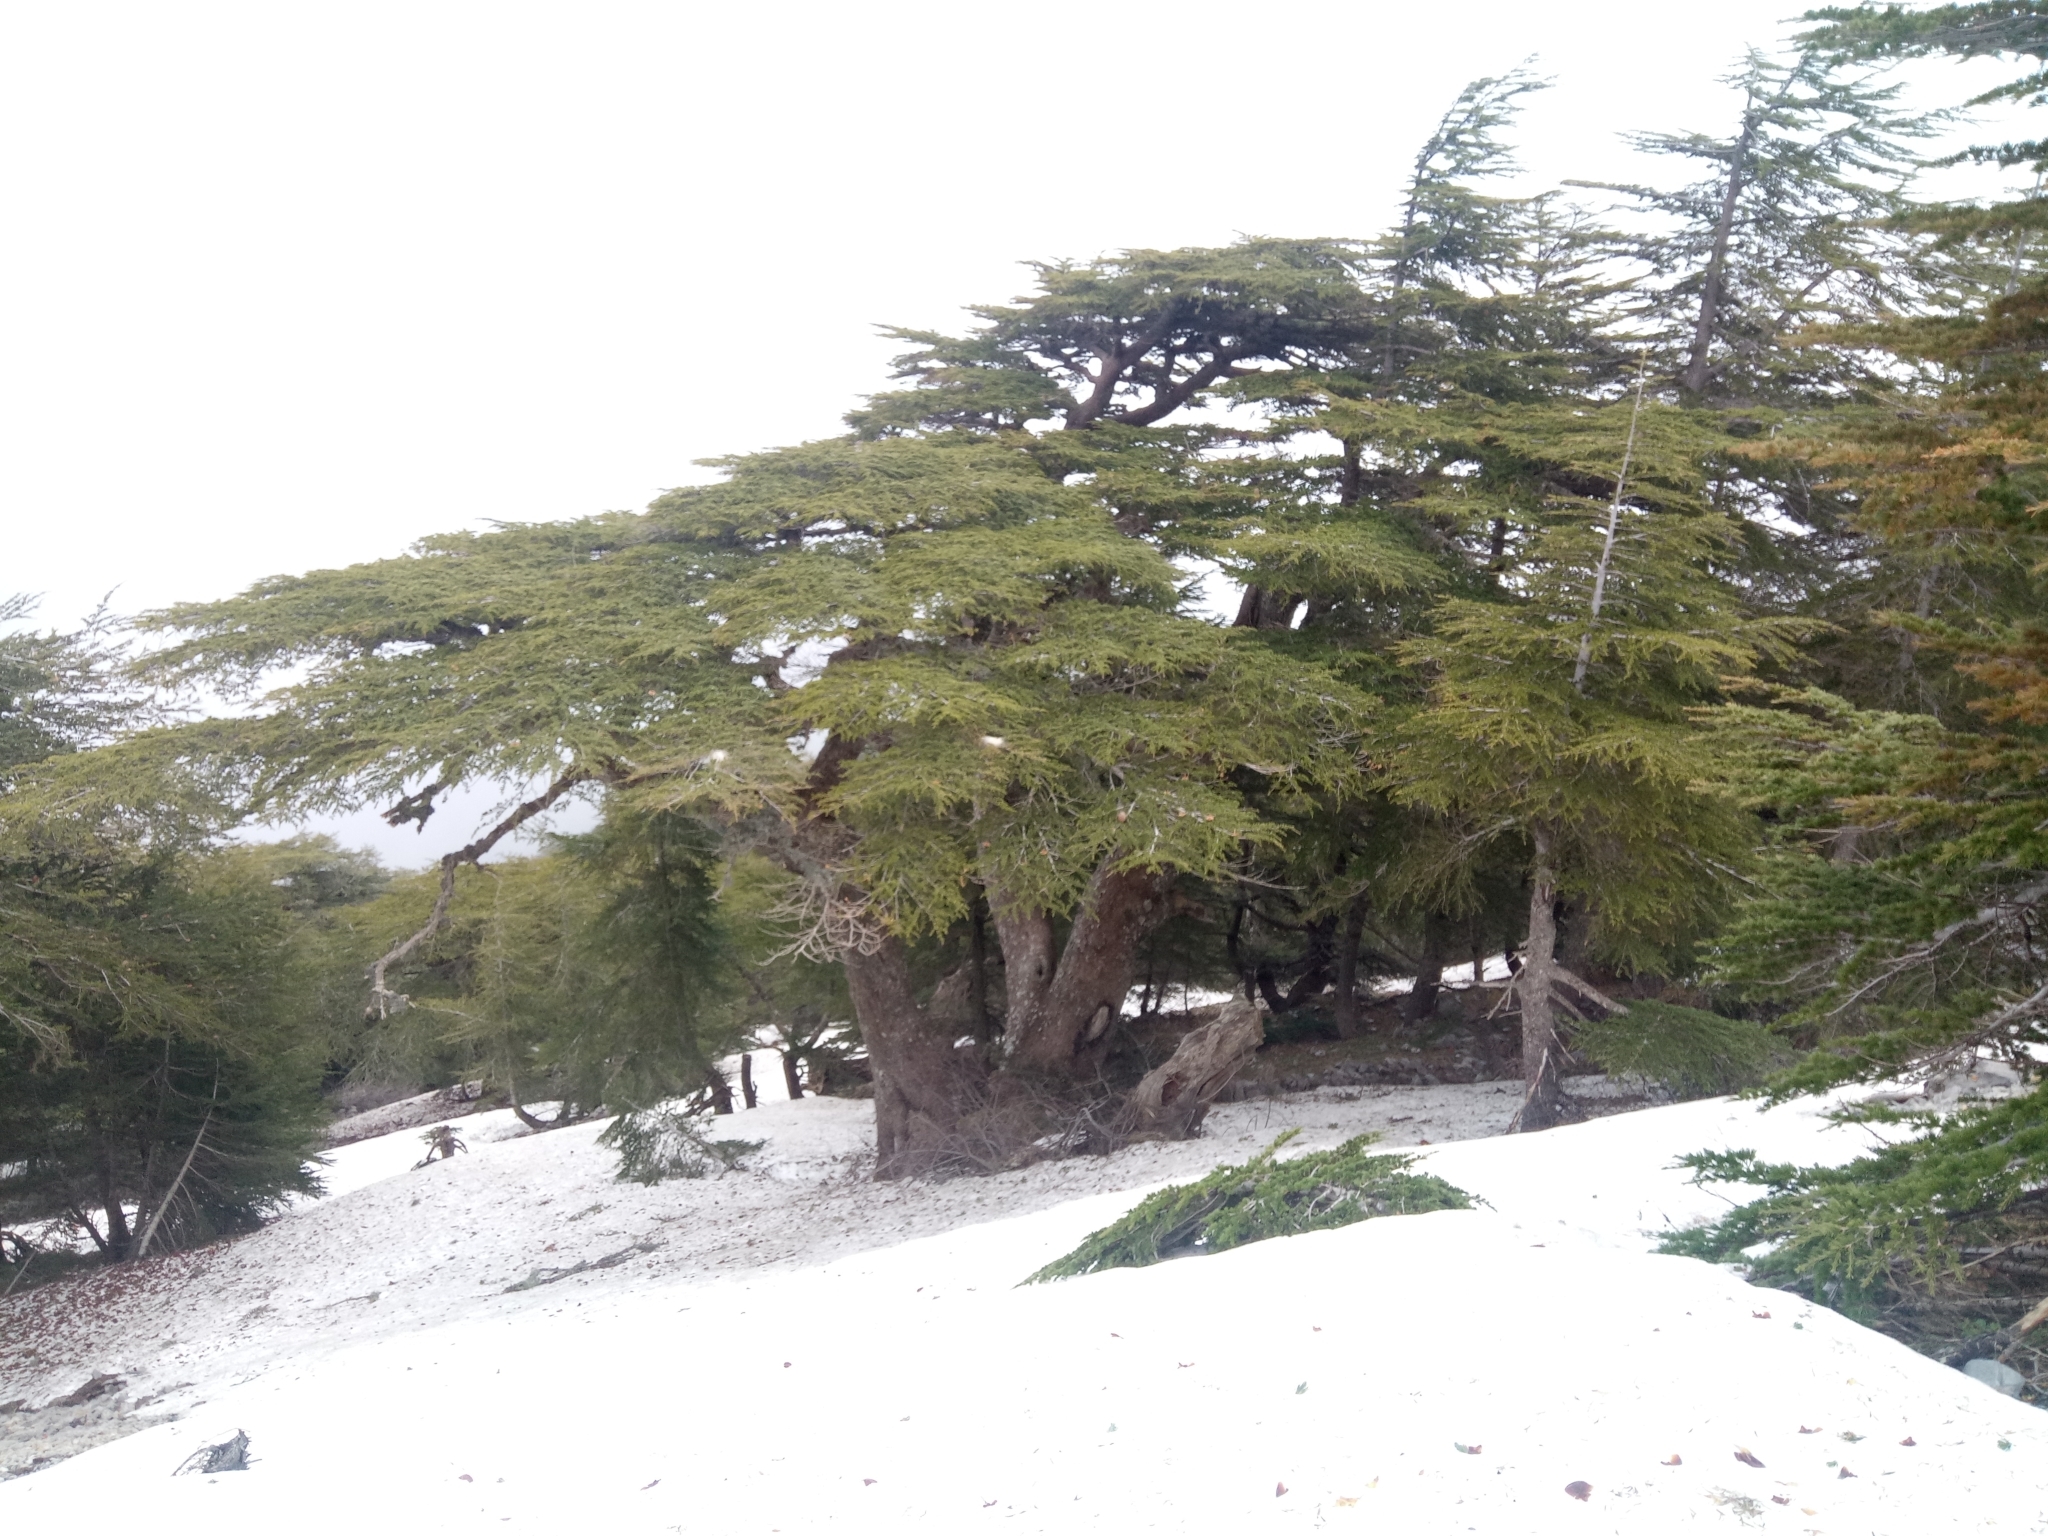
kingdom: Plantae
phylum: Tracheophyta
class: Pinopsida
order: Pinales
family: Pinaceae
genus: Cedrus
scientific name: Cedrus atlantica
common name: Atlas cedar
